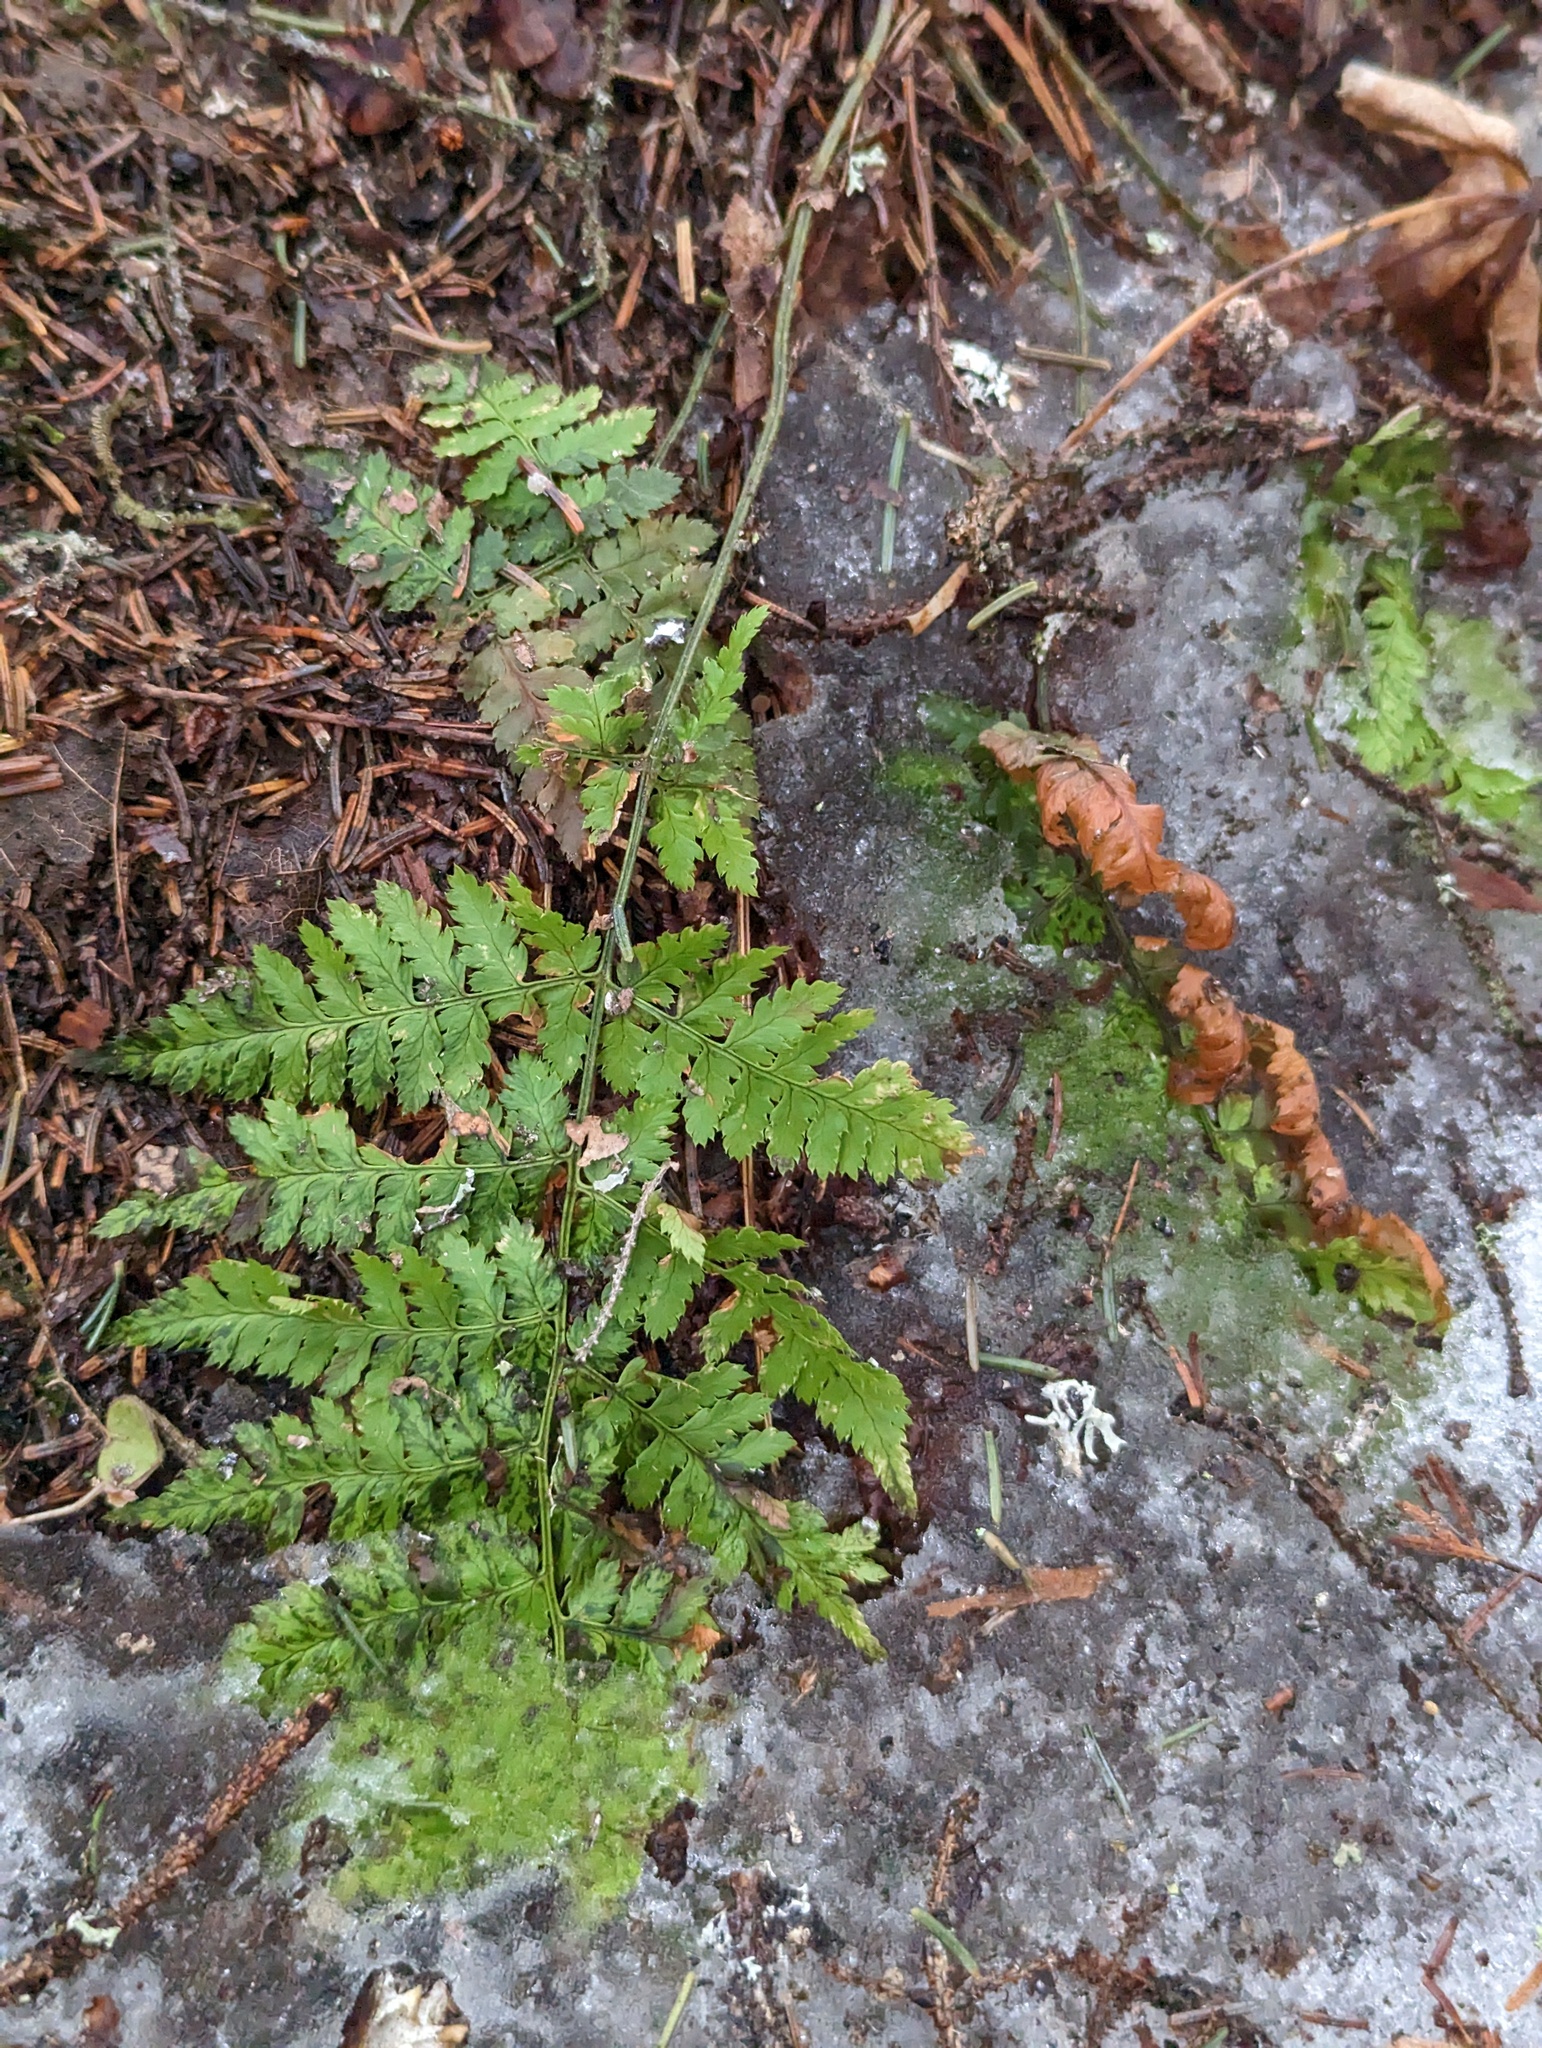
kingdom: Plantae
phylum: Tracheophyta
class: Polypodiopsida
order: Polypodiales
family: Dryopteridaceae
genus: Dryopteris
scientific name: Dryopteris intermedia
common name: Evergreen wood fern
